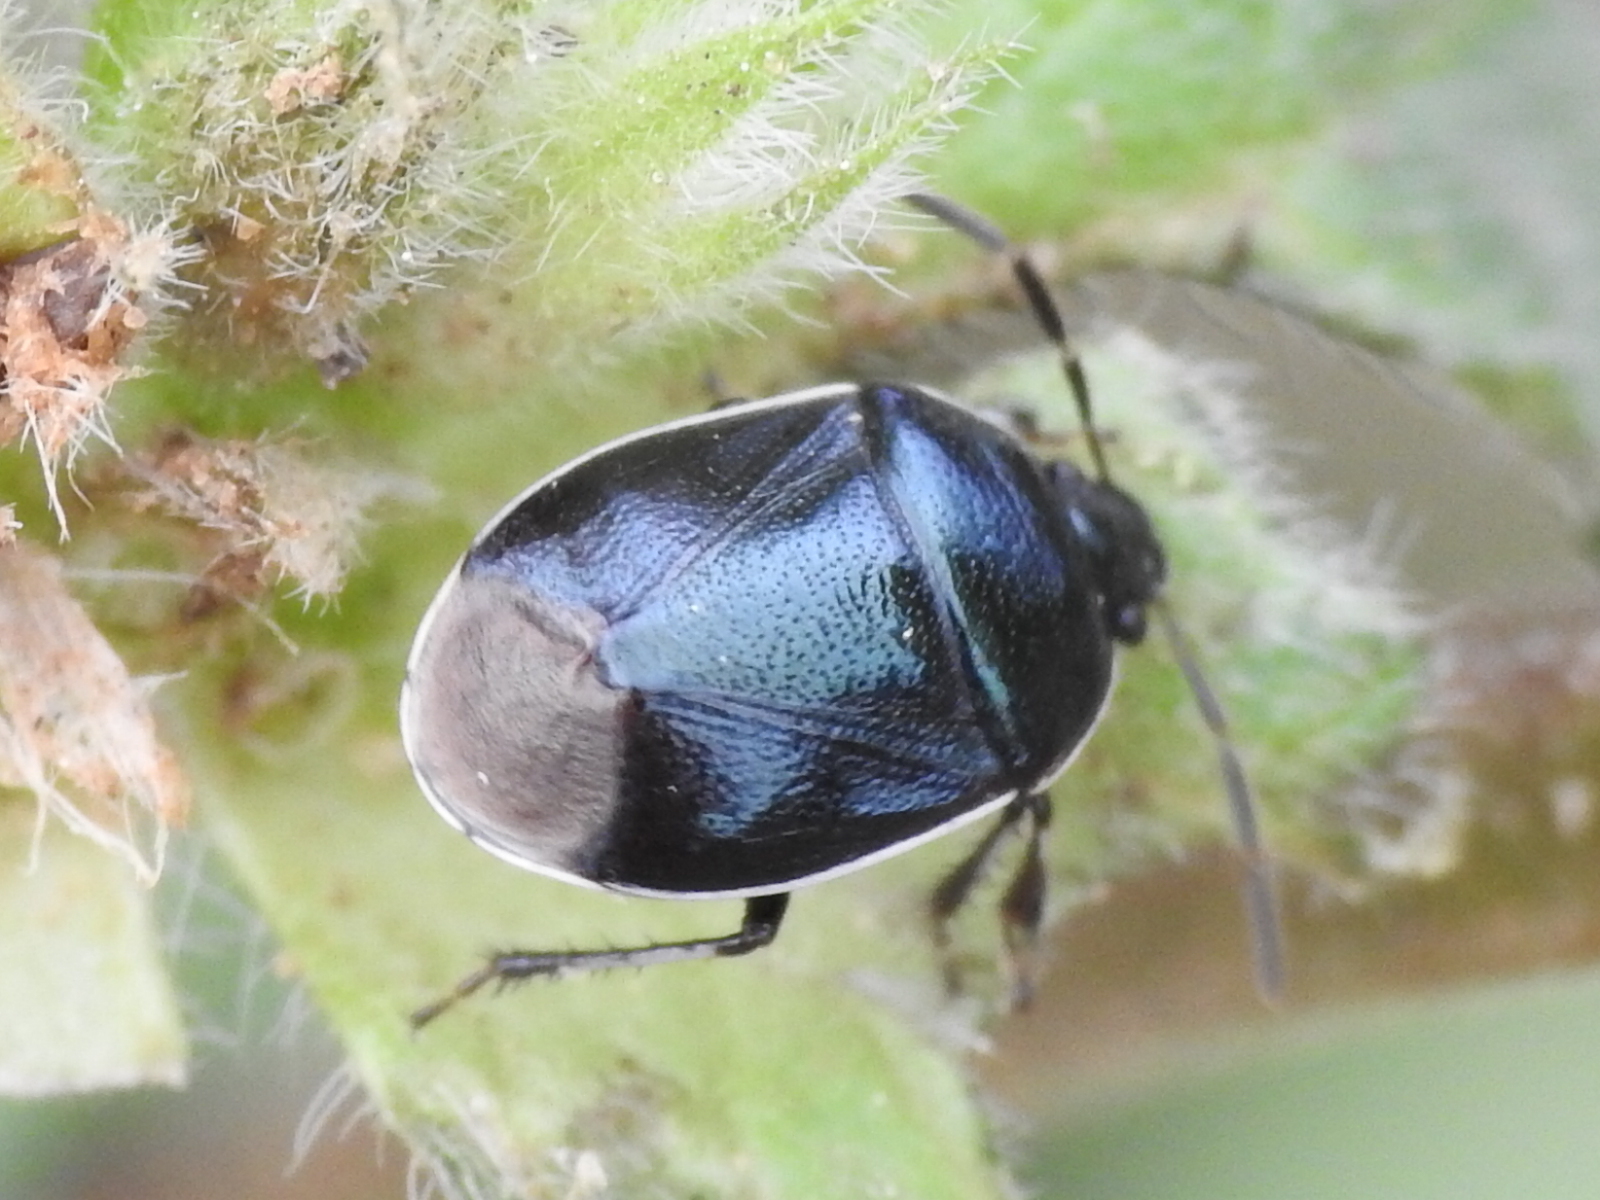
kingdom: Animalia
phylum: Arthropoda
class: Insecta
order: Hemiptera
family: Cydnidae
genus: Sehirus
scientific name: Sehirus cinctus
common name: White-margined burrower bug
